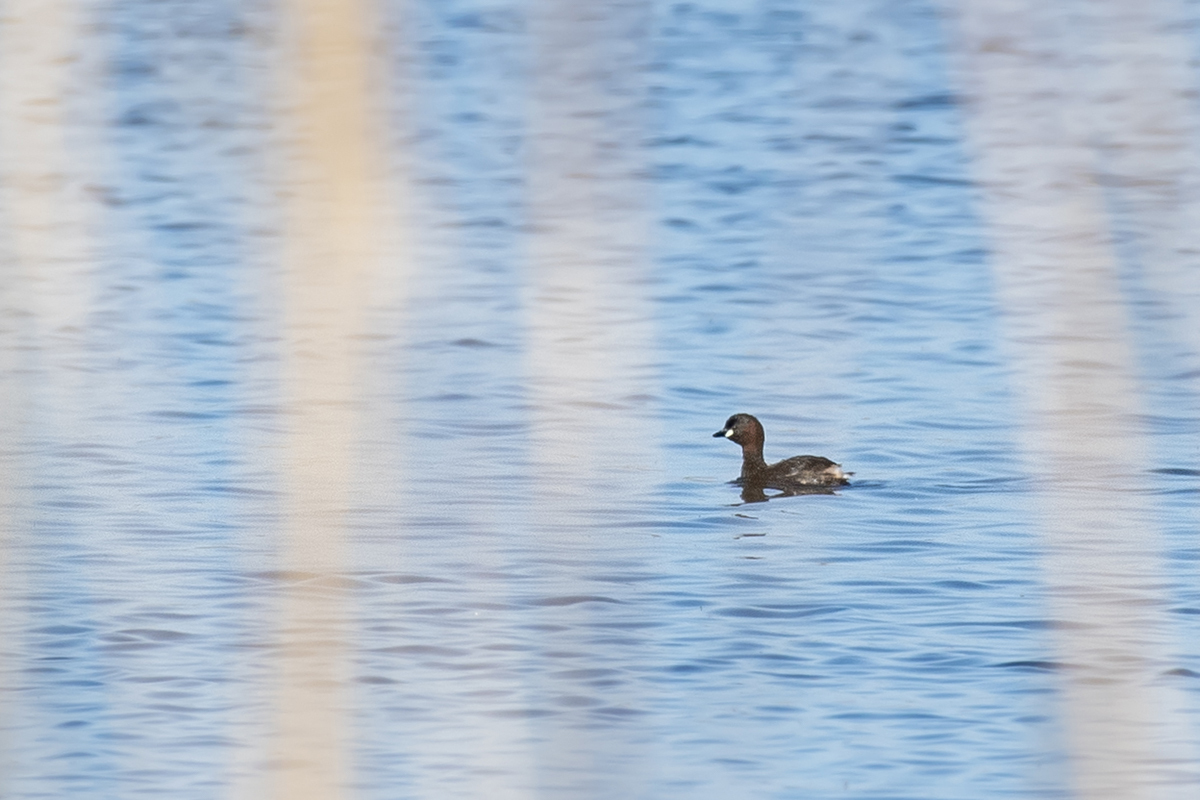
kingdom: Animalia
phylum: Chordata
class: Aves
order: Podicipediformes
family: Podicipedidae
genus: Tachybaptus
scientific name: Tachybaptus ruficollis
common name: Little grebe
